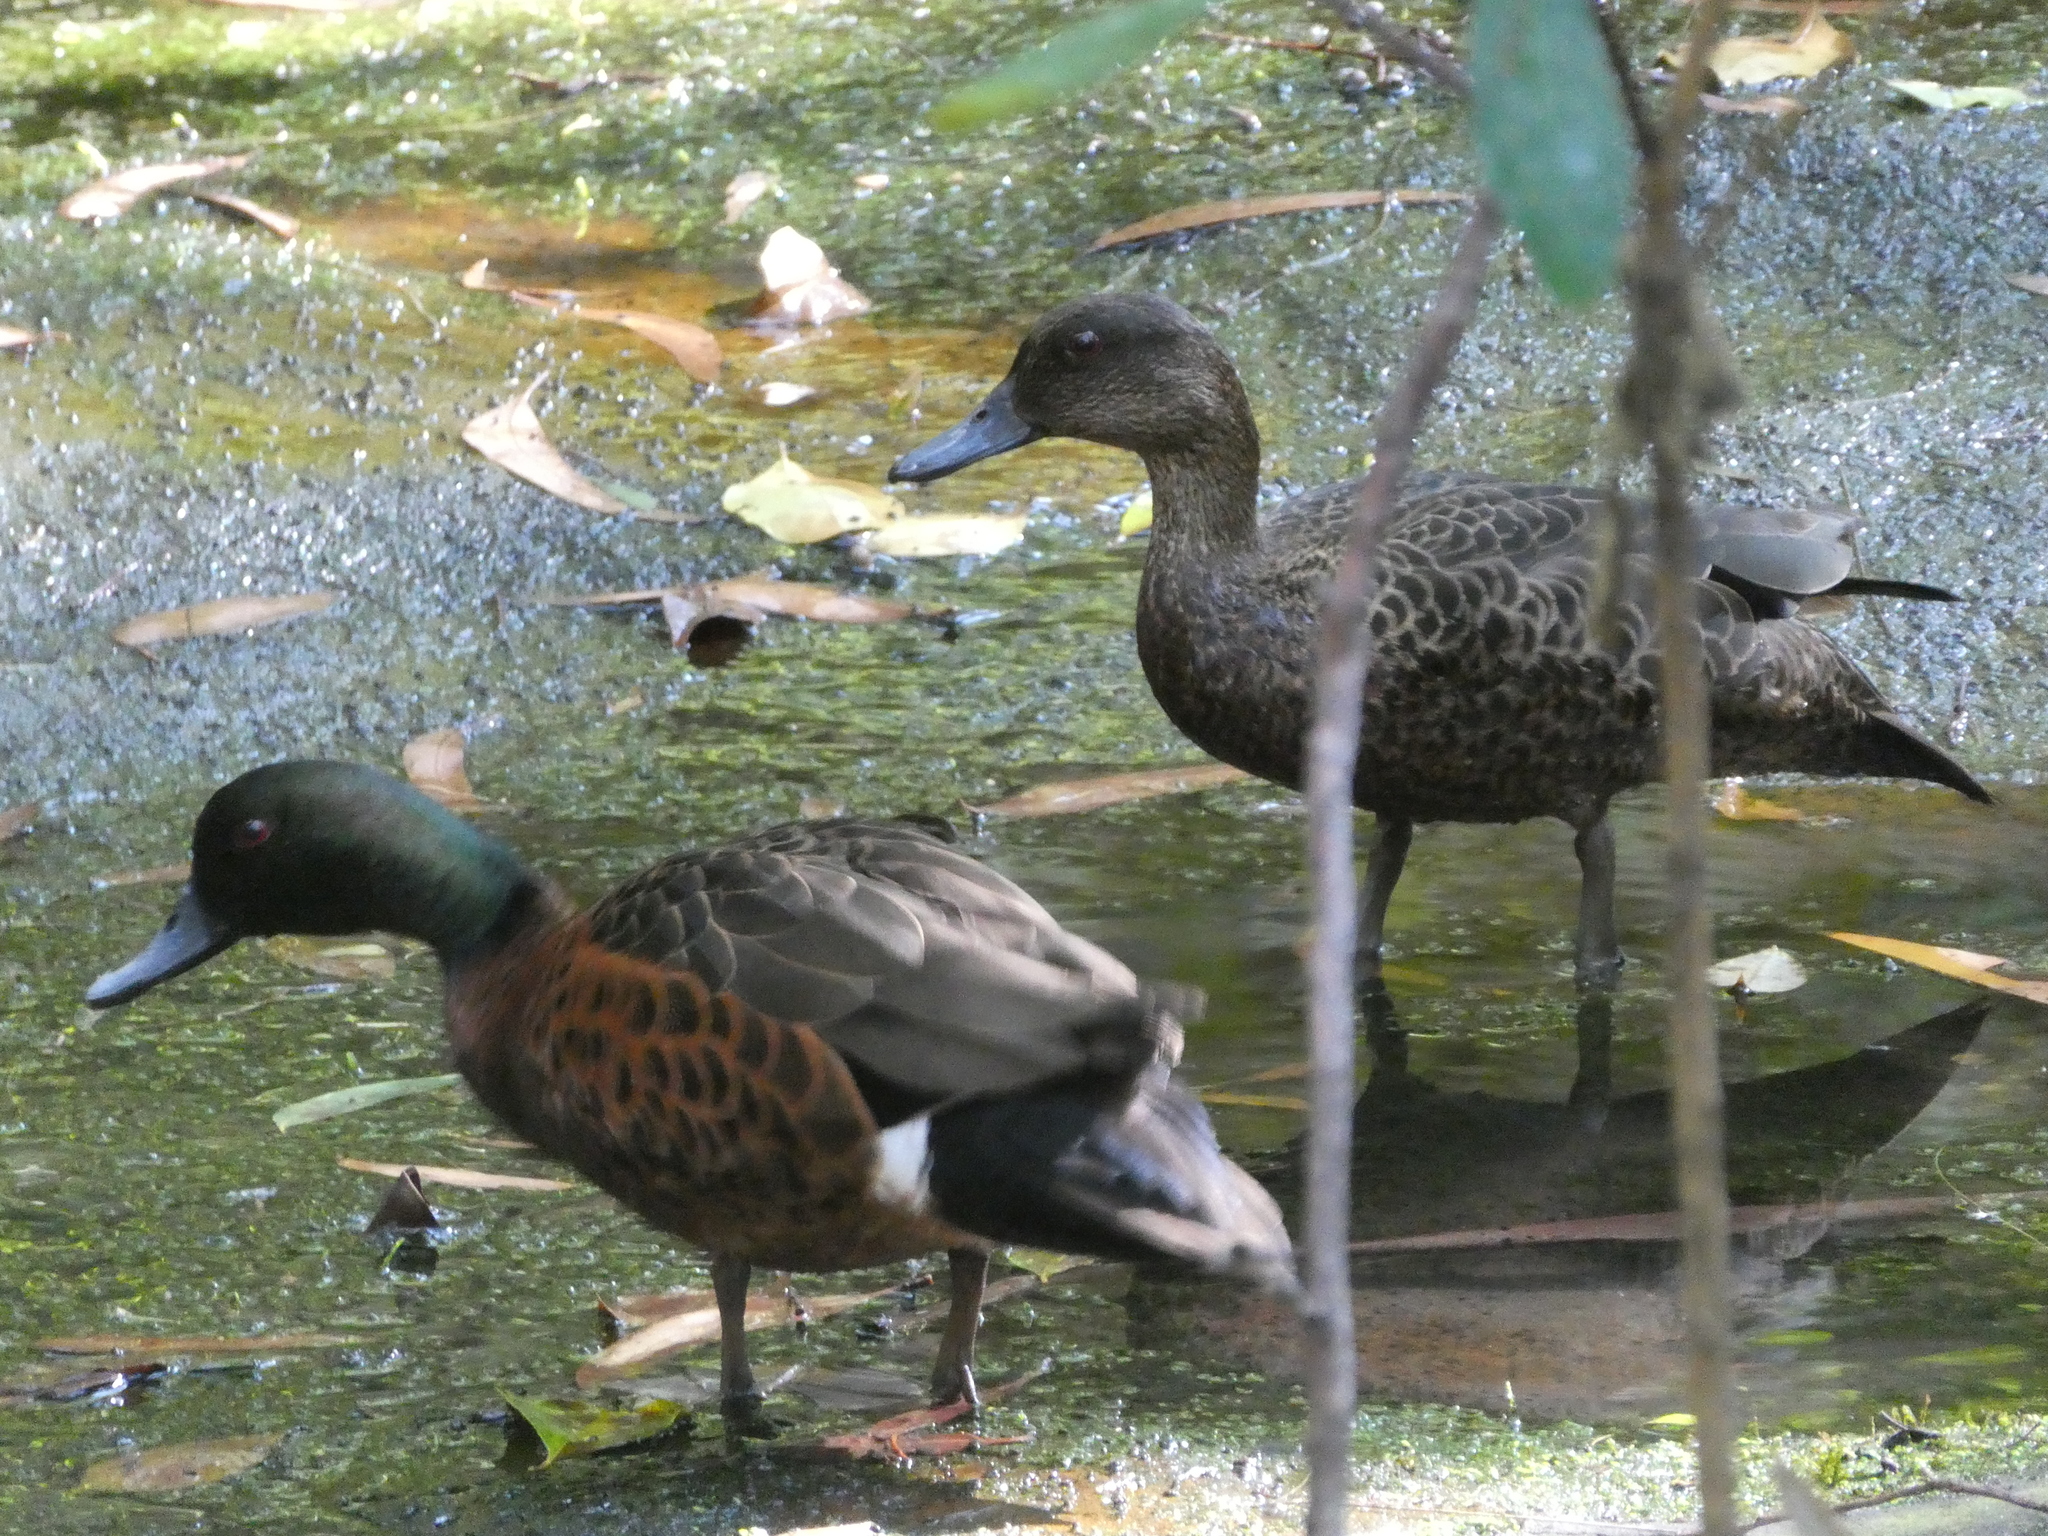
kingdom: Animalia
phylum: Chordata
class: Aves
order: Anseriformes
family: Anatidae
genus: Anas
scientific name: Anas castanea
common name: Chestnut teal
